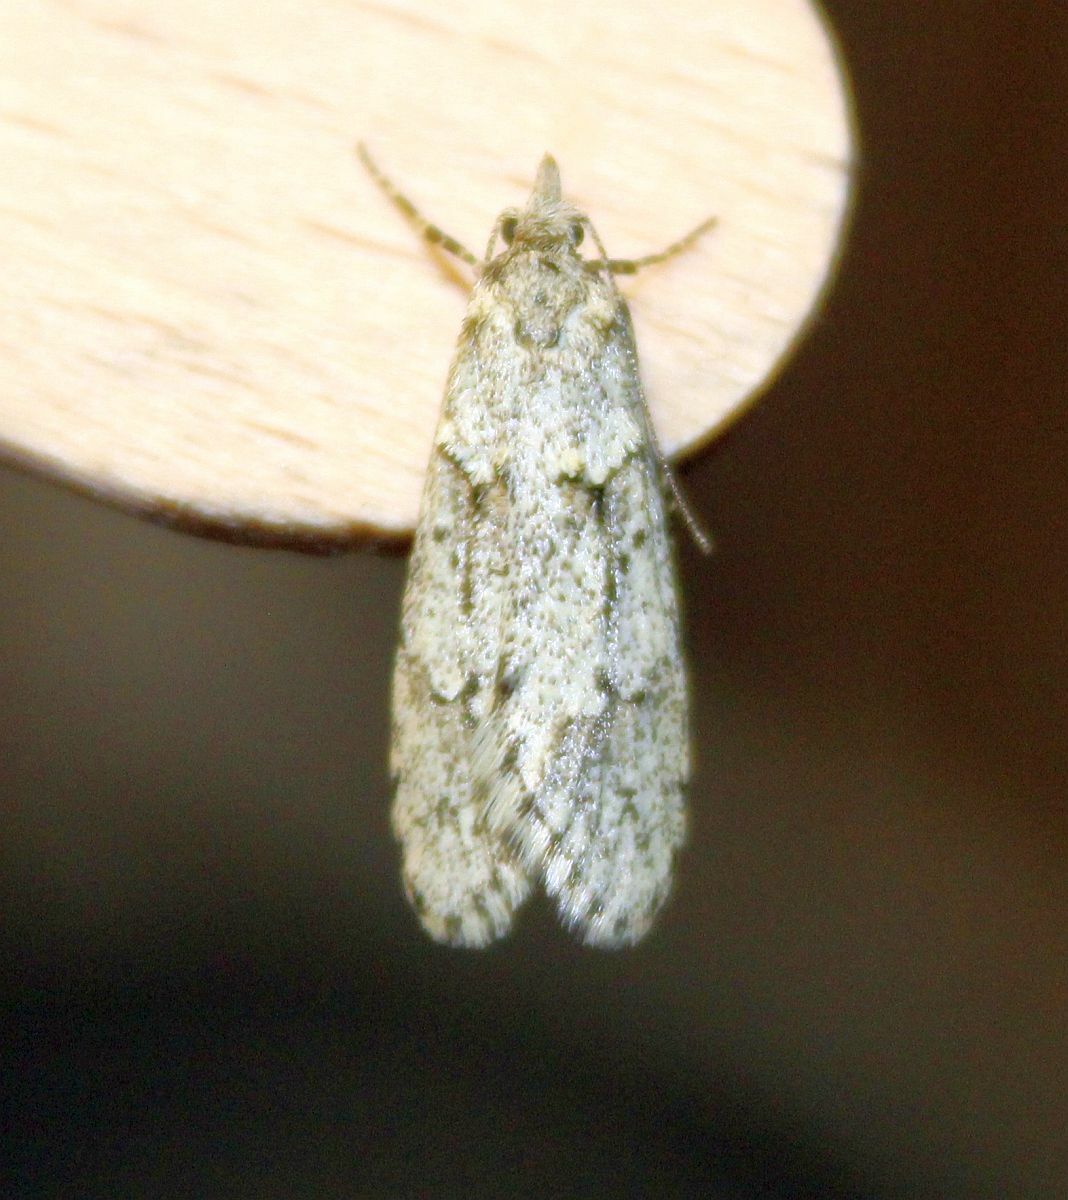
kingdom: Animalia
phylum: Arthropoda
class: Insecta
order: Lepidoptera
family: Lypusidae
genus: Diurnea
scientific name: Diurnea fagella
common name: March tubic
